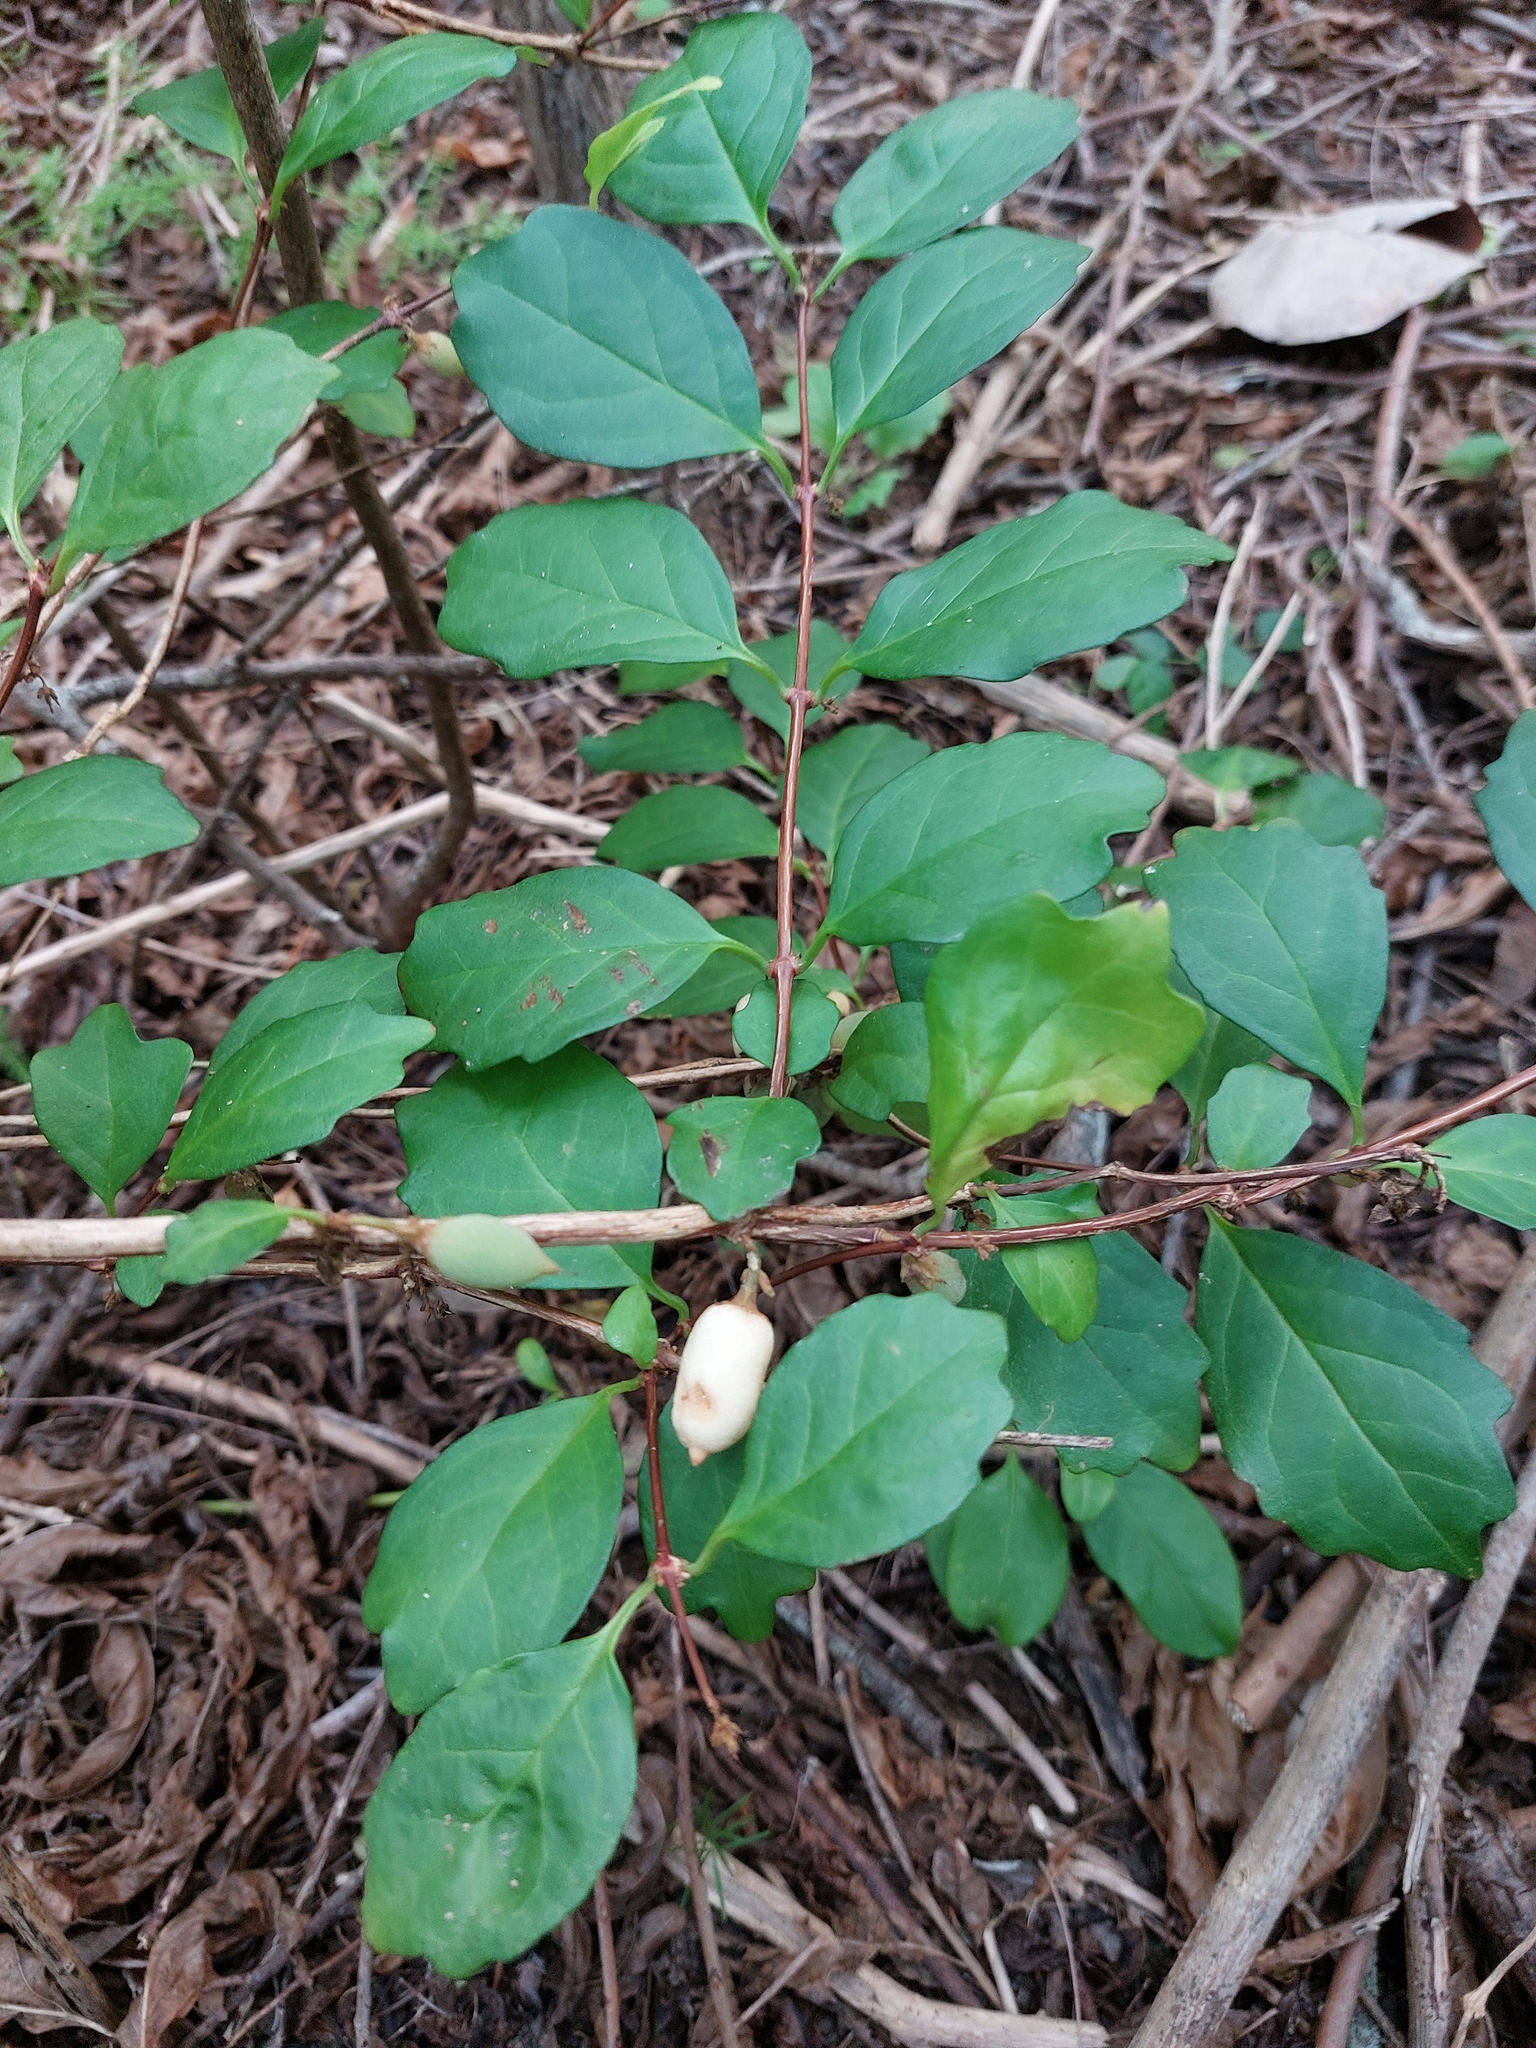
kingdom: Plantae
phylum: Tracheophyta
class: Magnoliopsida
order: Lamiales
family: Scrophulariaceae
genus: Buddleja
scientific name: Buddleja indica
